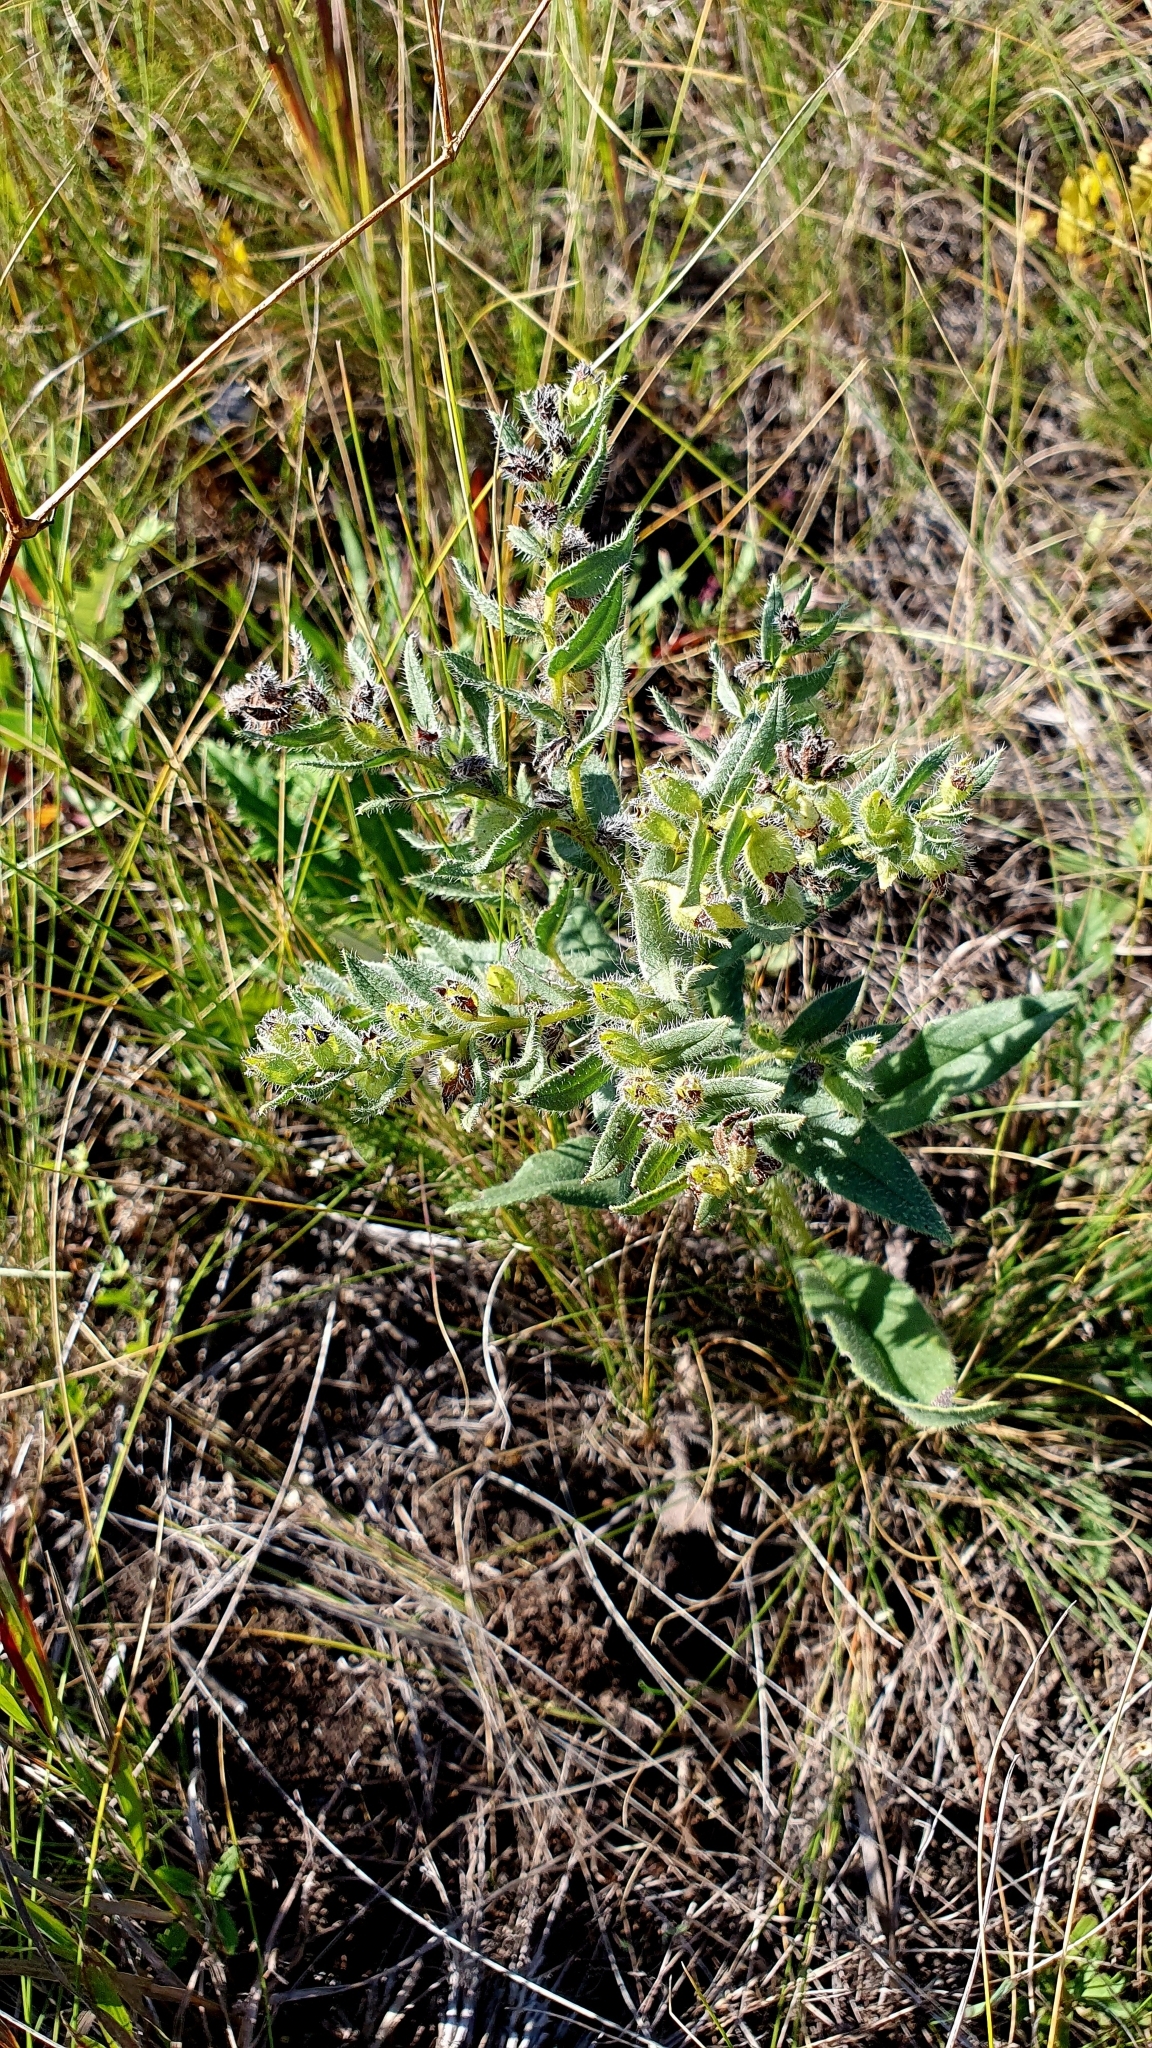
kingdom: Plantae
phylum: Tracheophyta
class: Magnoliopsida
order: Boraginales
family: Boraginaceae
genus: Nonea
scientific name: Nonea pulla
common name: Brown nonea
